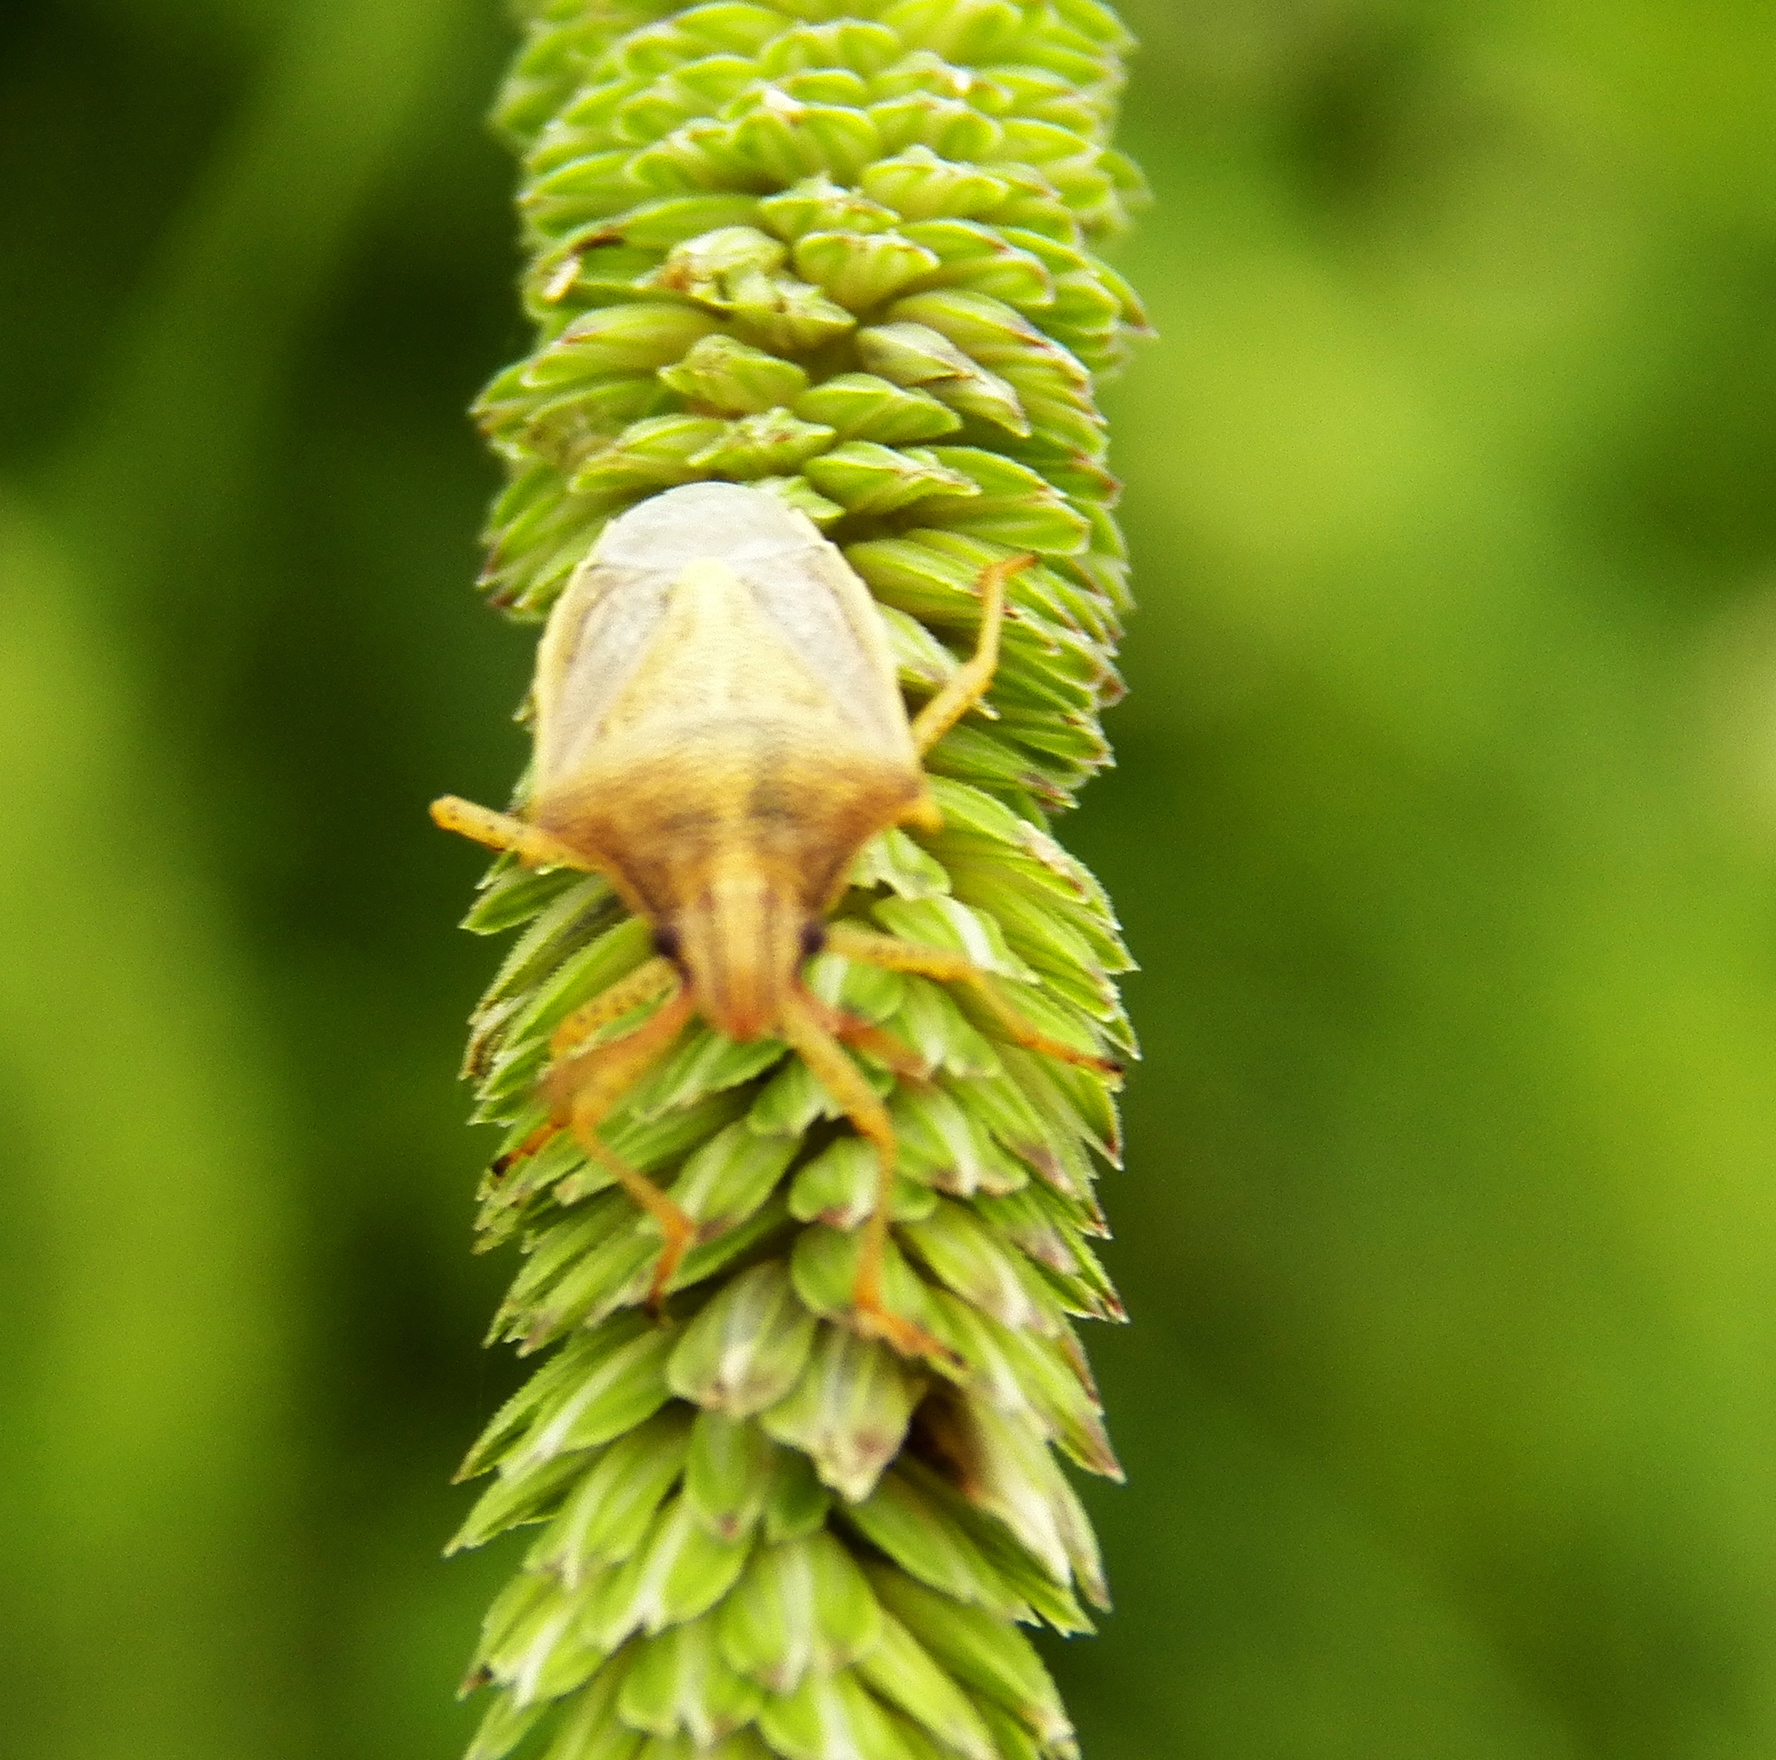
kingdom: Animalia
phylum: Arthropoda
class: Insecta
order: Hemiptera
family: Pentatomidae
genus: Oebalus
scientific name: Oebalus pugnax
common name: Rice stink bug
